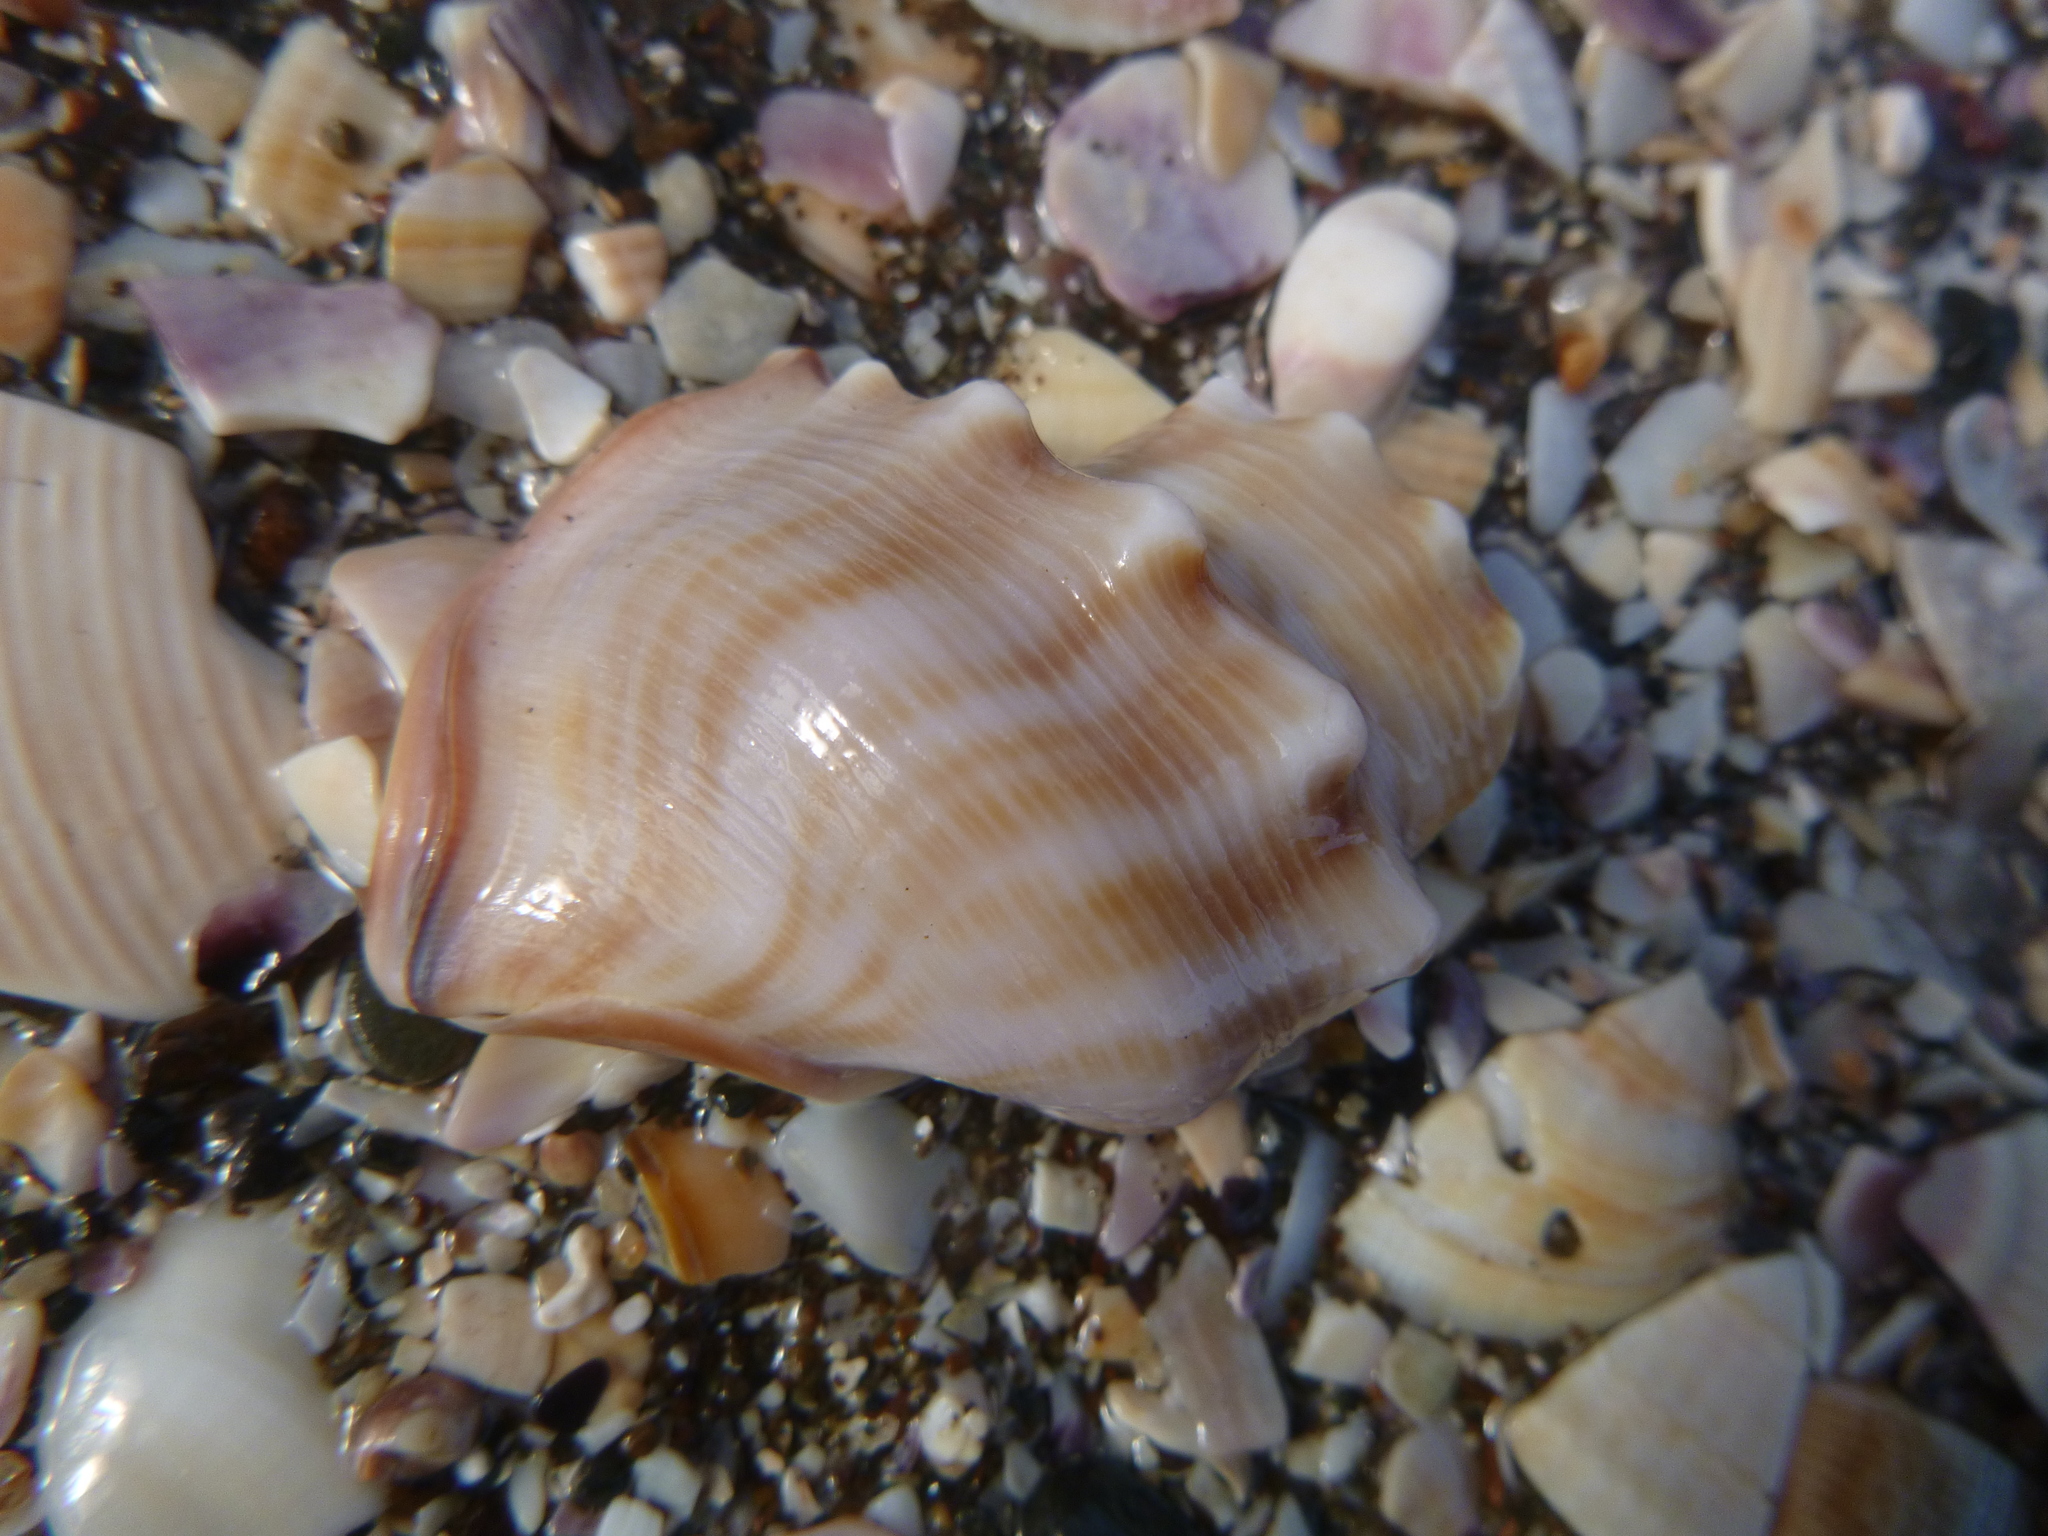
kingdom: Animalia
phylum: Mollusca
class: Gastropoda
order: Littorinimorpha
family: Struthiolariidae
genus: Struthiolaria
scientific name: Struthiolaria papulosa
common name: Large ostrich foot
